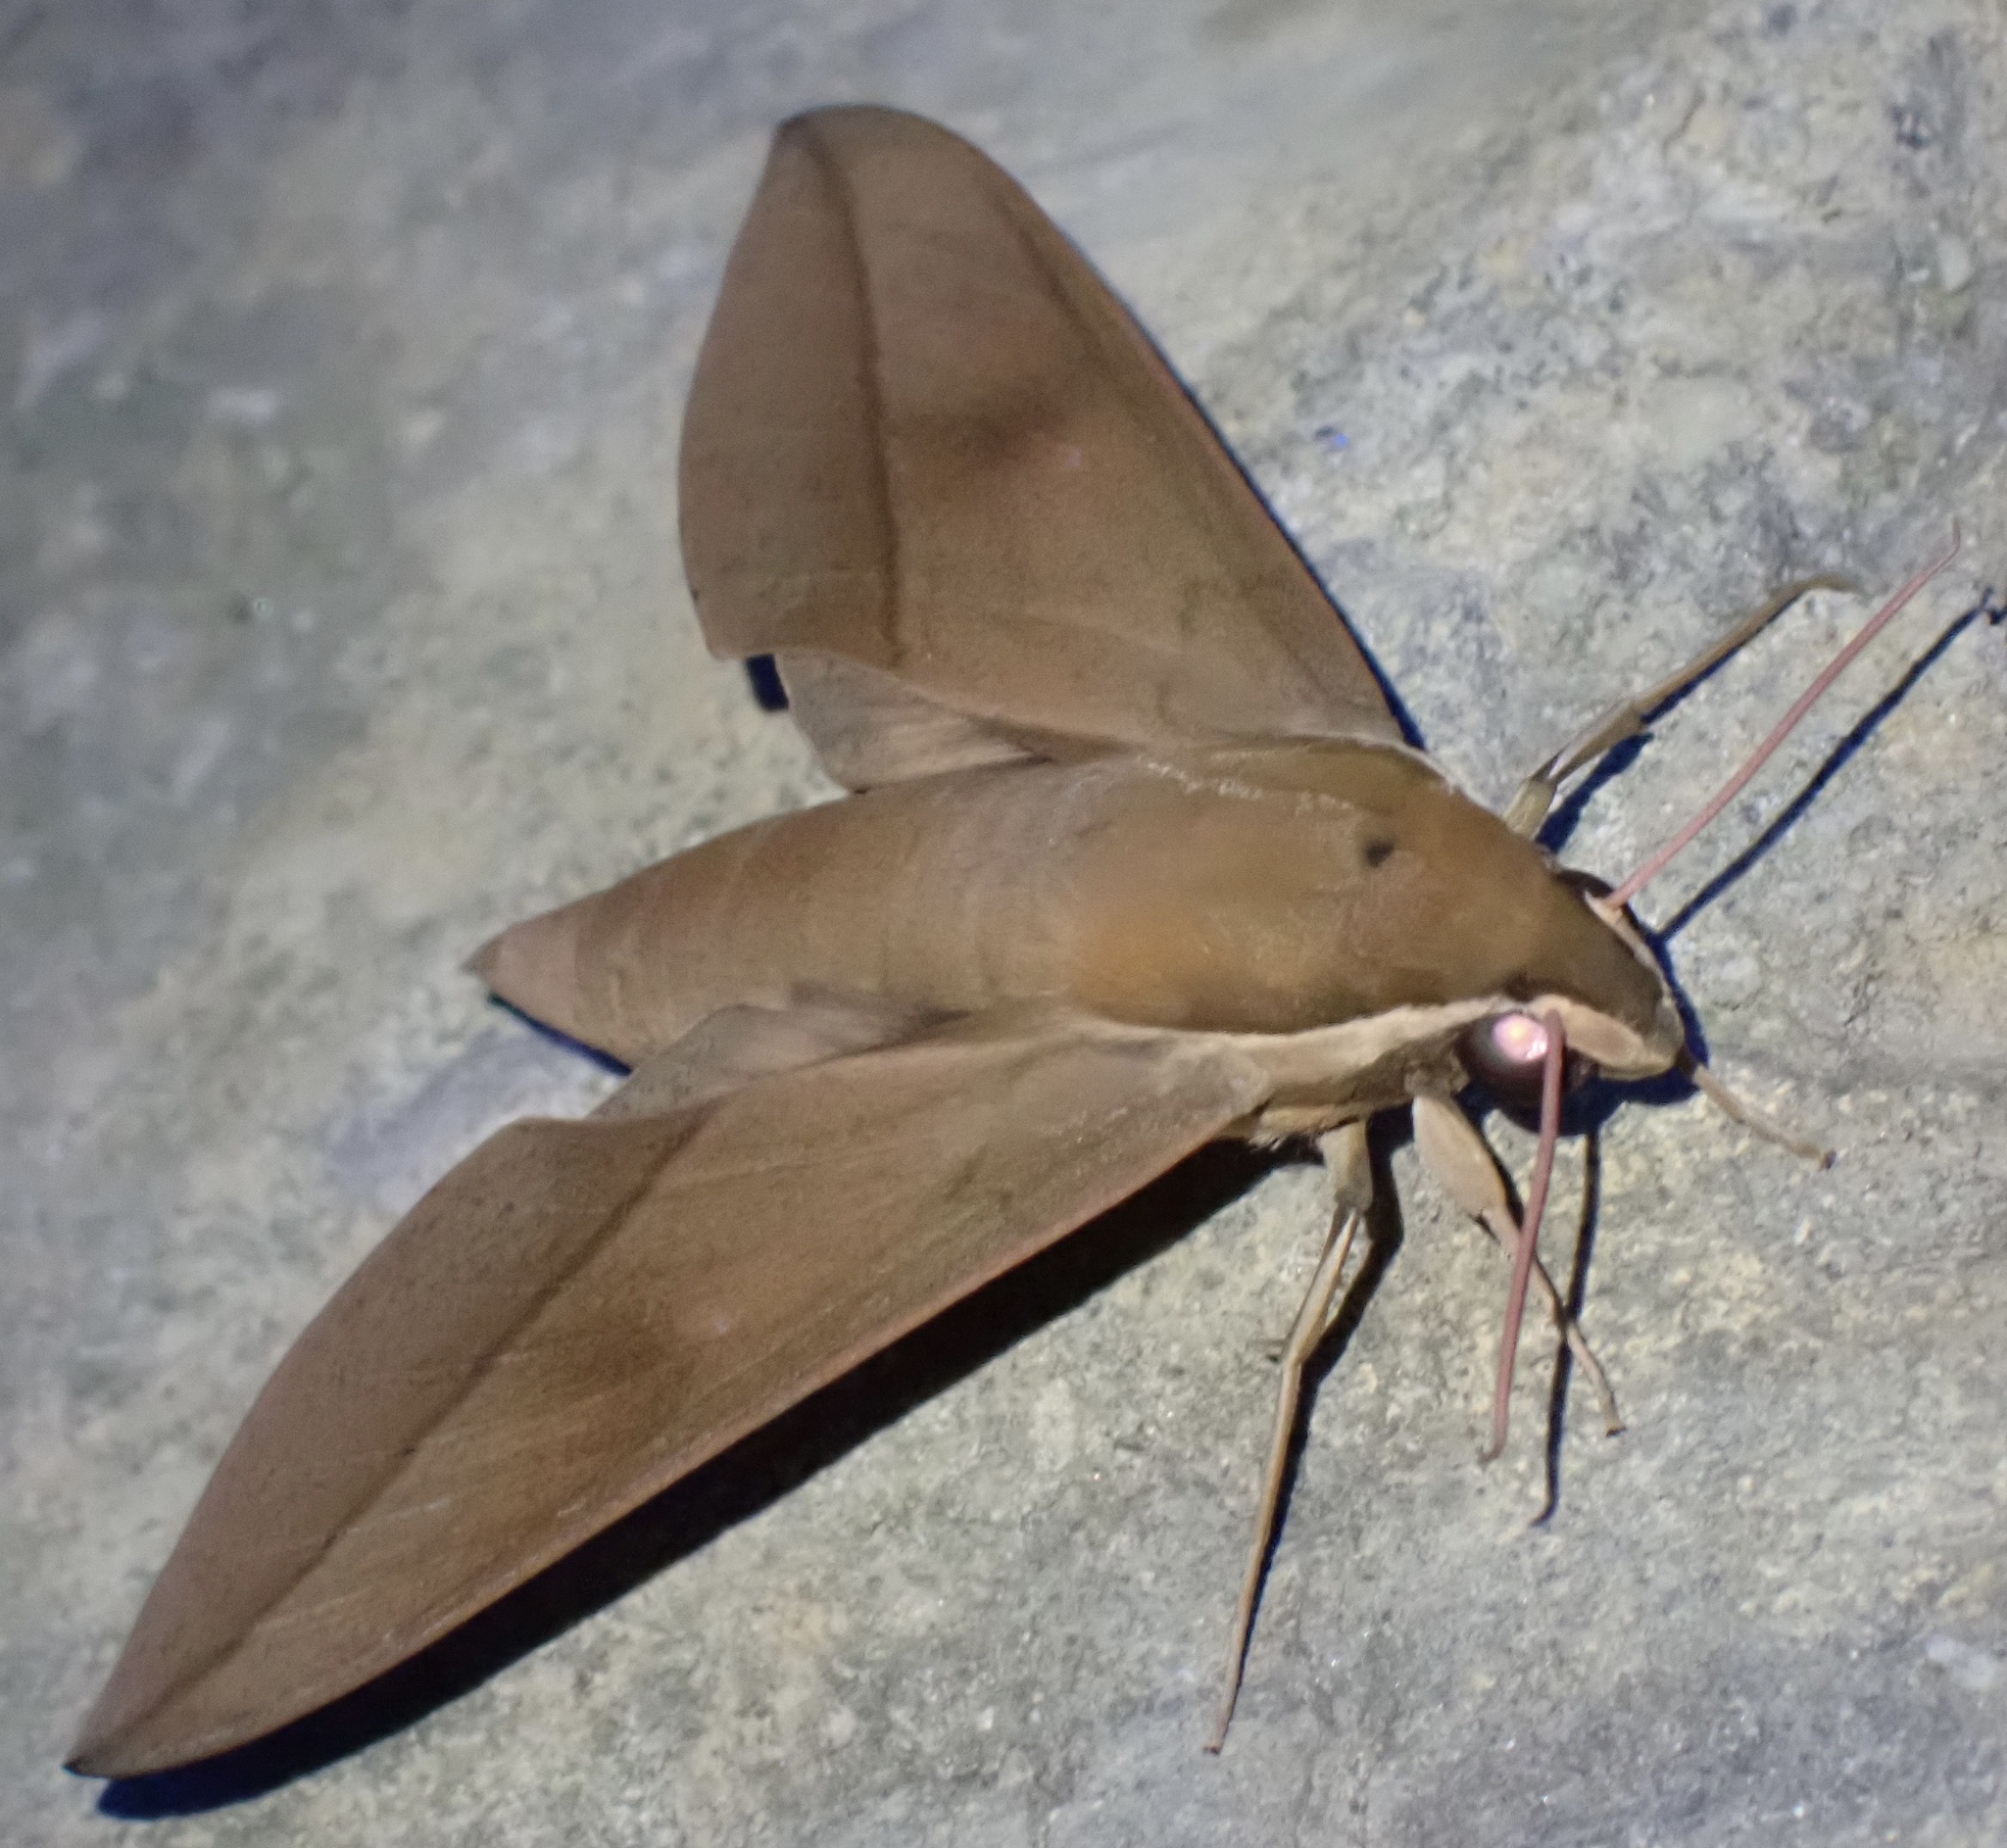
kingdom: Animalia
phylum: Arthropoda
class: Insecta
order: Lepidoptera
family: Sphingidae
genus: Theretra
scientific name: Theretra celata
